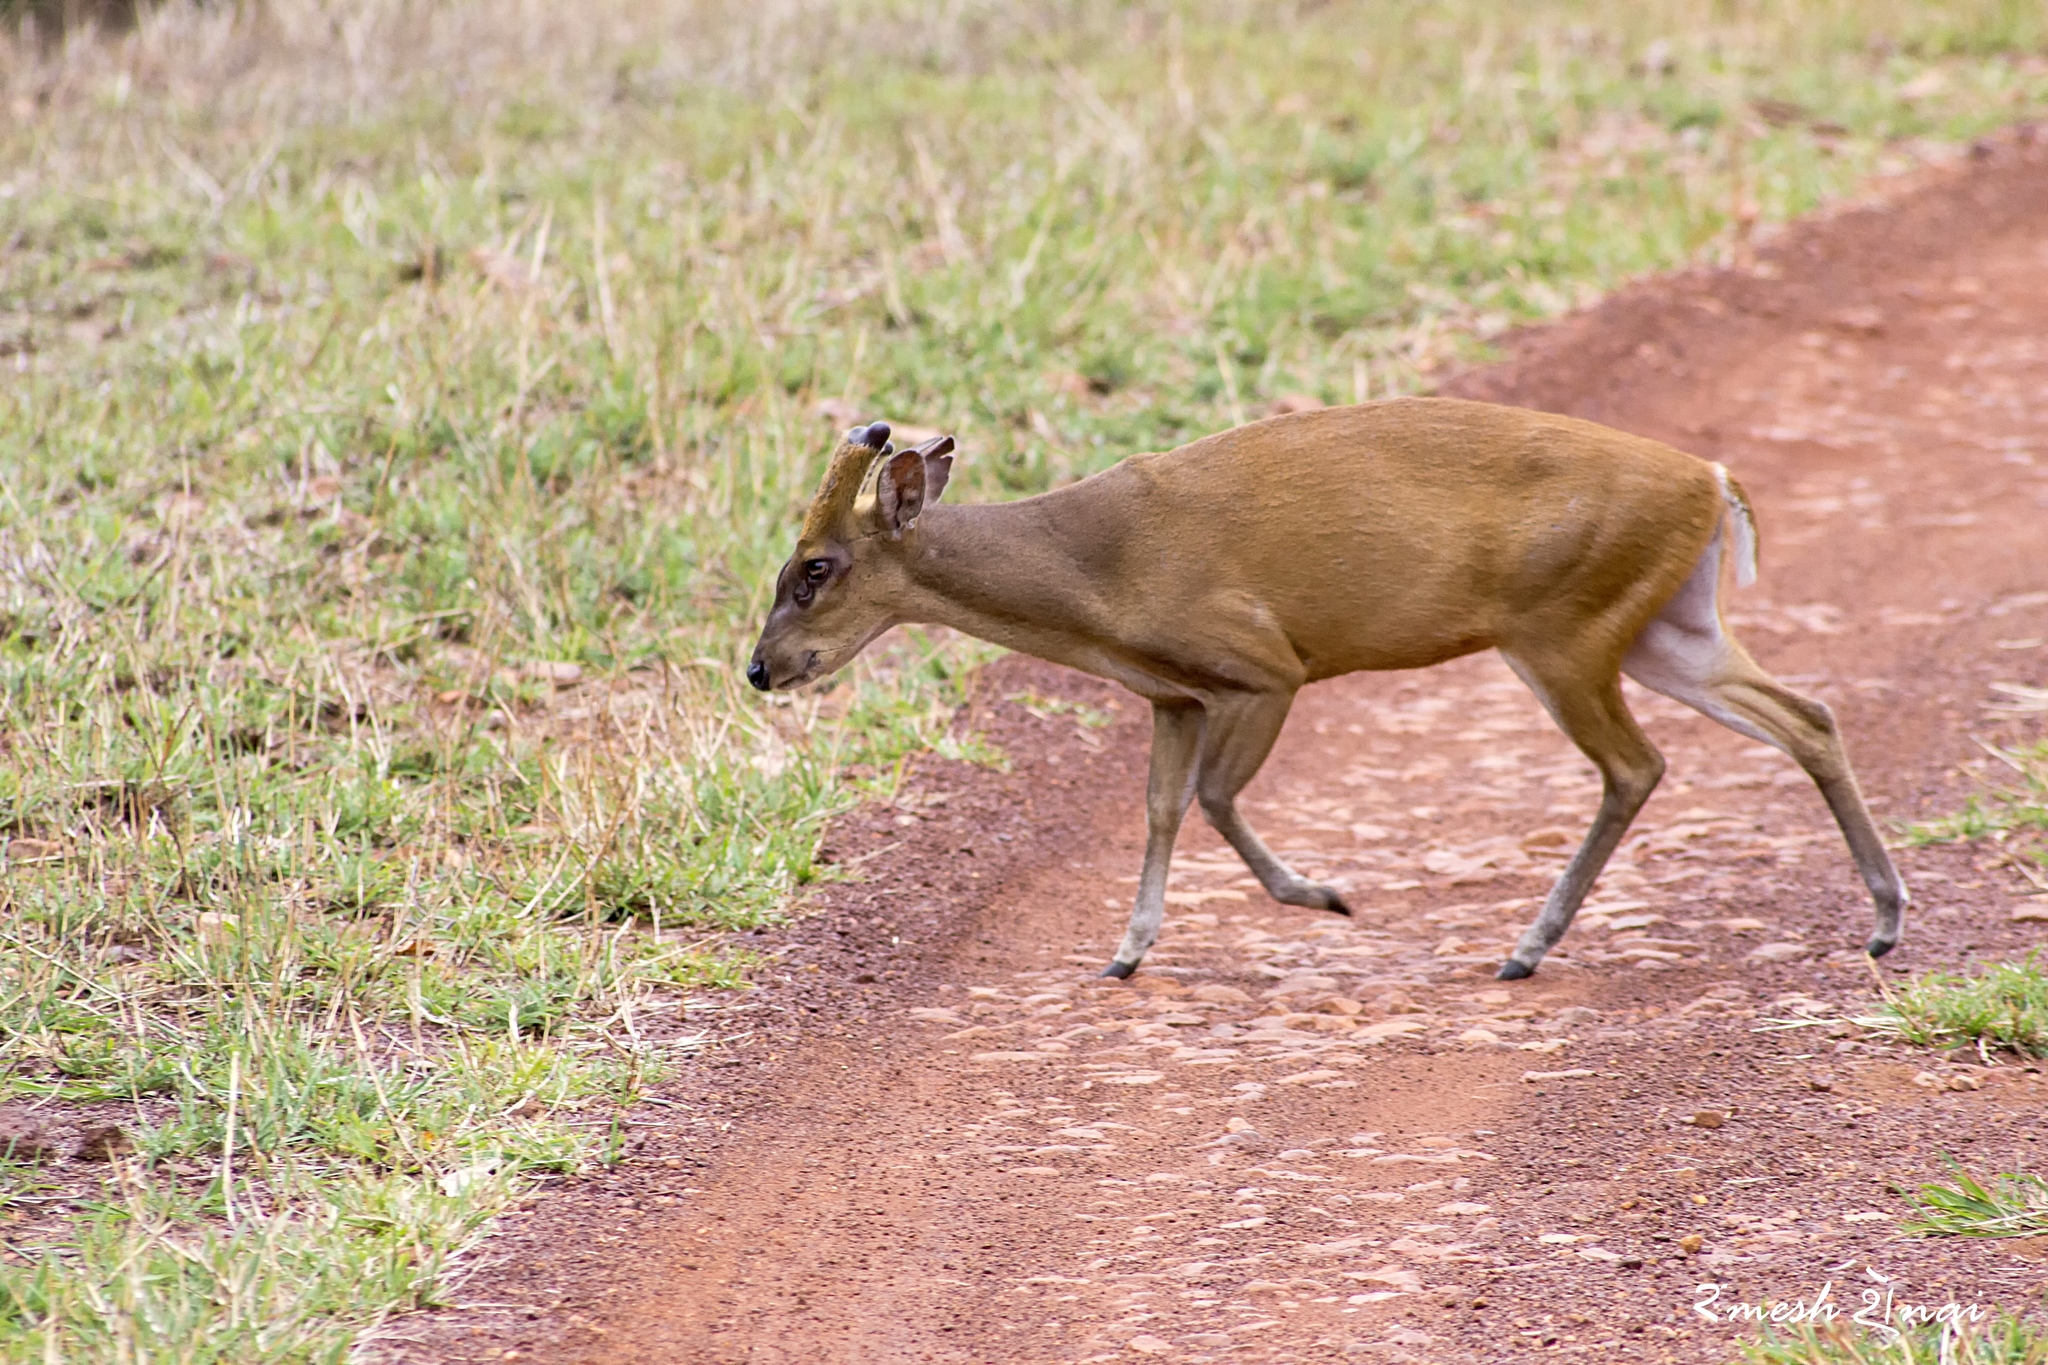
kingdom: Animalia
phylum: Chordata
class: Mammalia
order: Artiodactyla
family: Cervidae
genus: Muntiacus
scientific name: Muntiacus muntjak
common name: Indian muntjac
